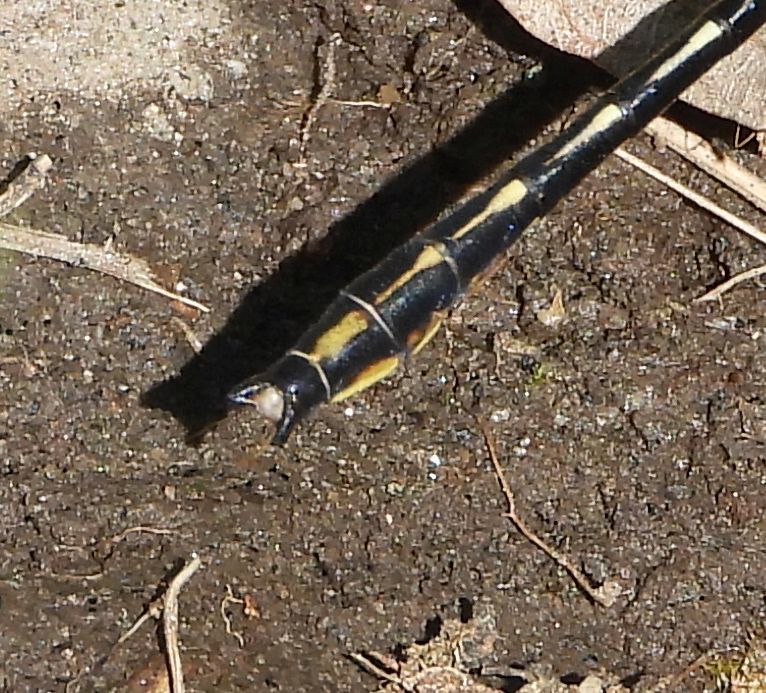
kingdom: Animalia
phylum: Arthropoda
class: Insecta
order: Odonata
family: Gomphidae
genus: Phanogomphus
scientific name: Phanogomphus exilis
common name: Lancet clubtail
